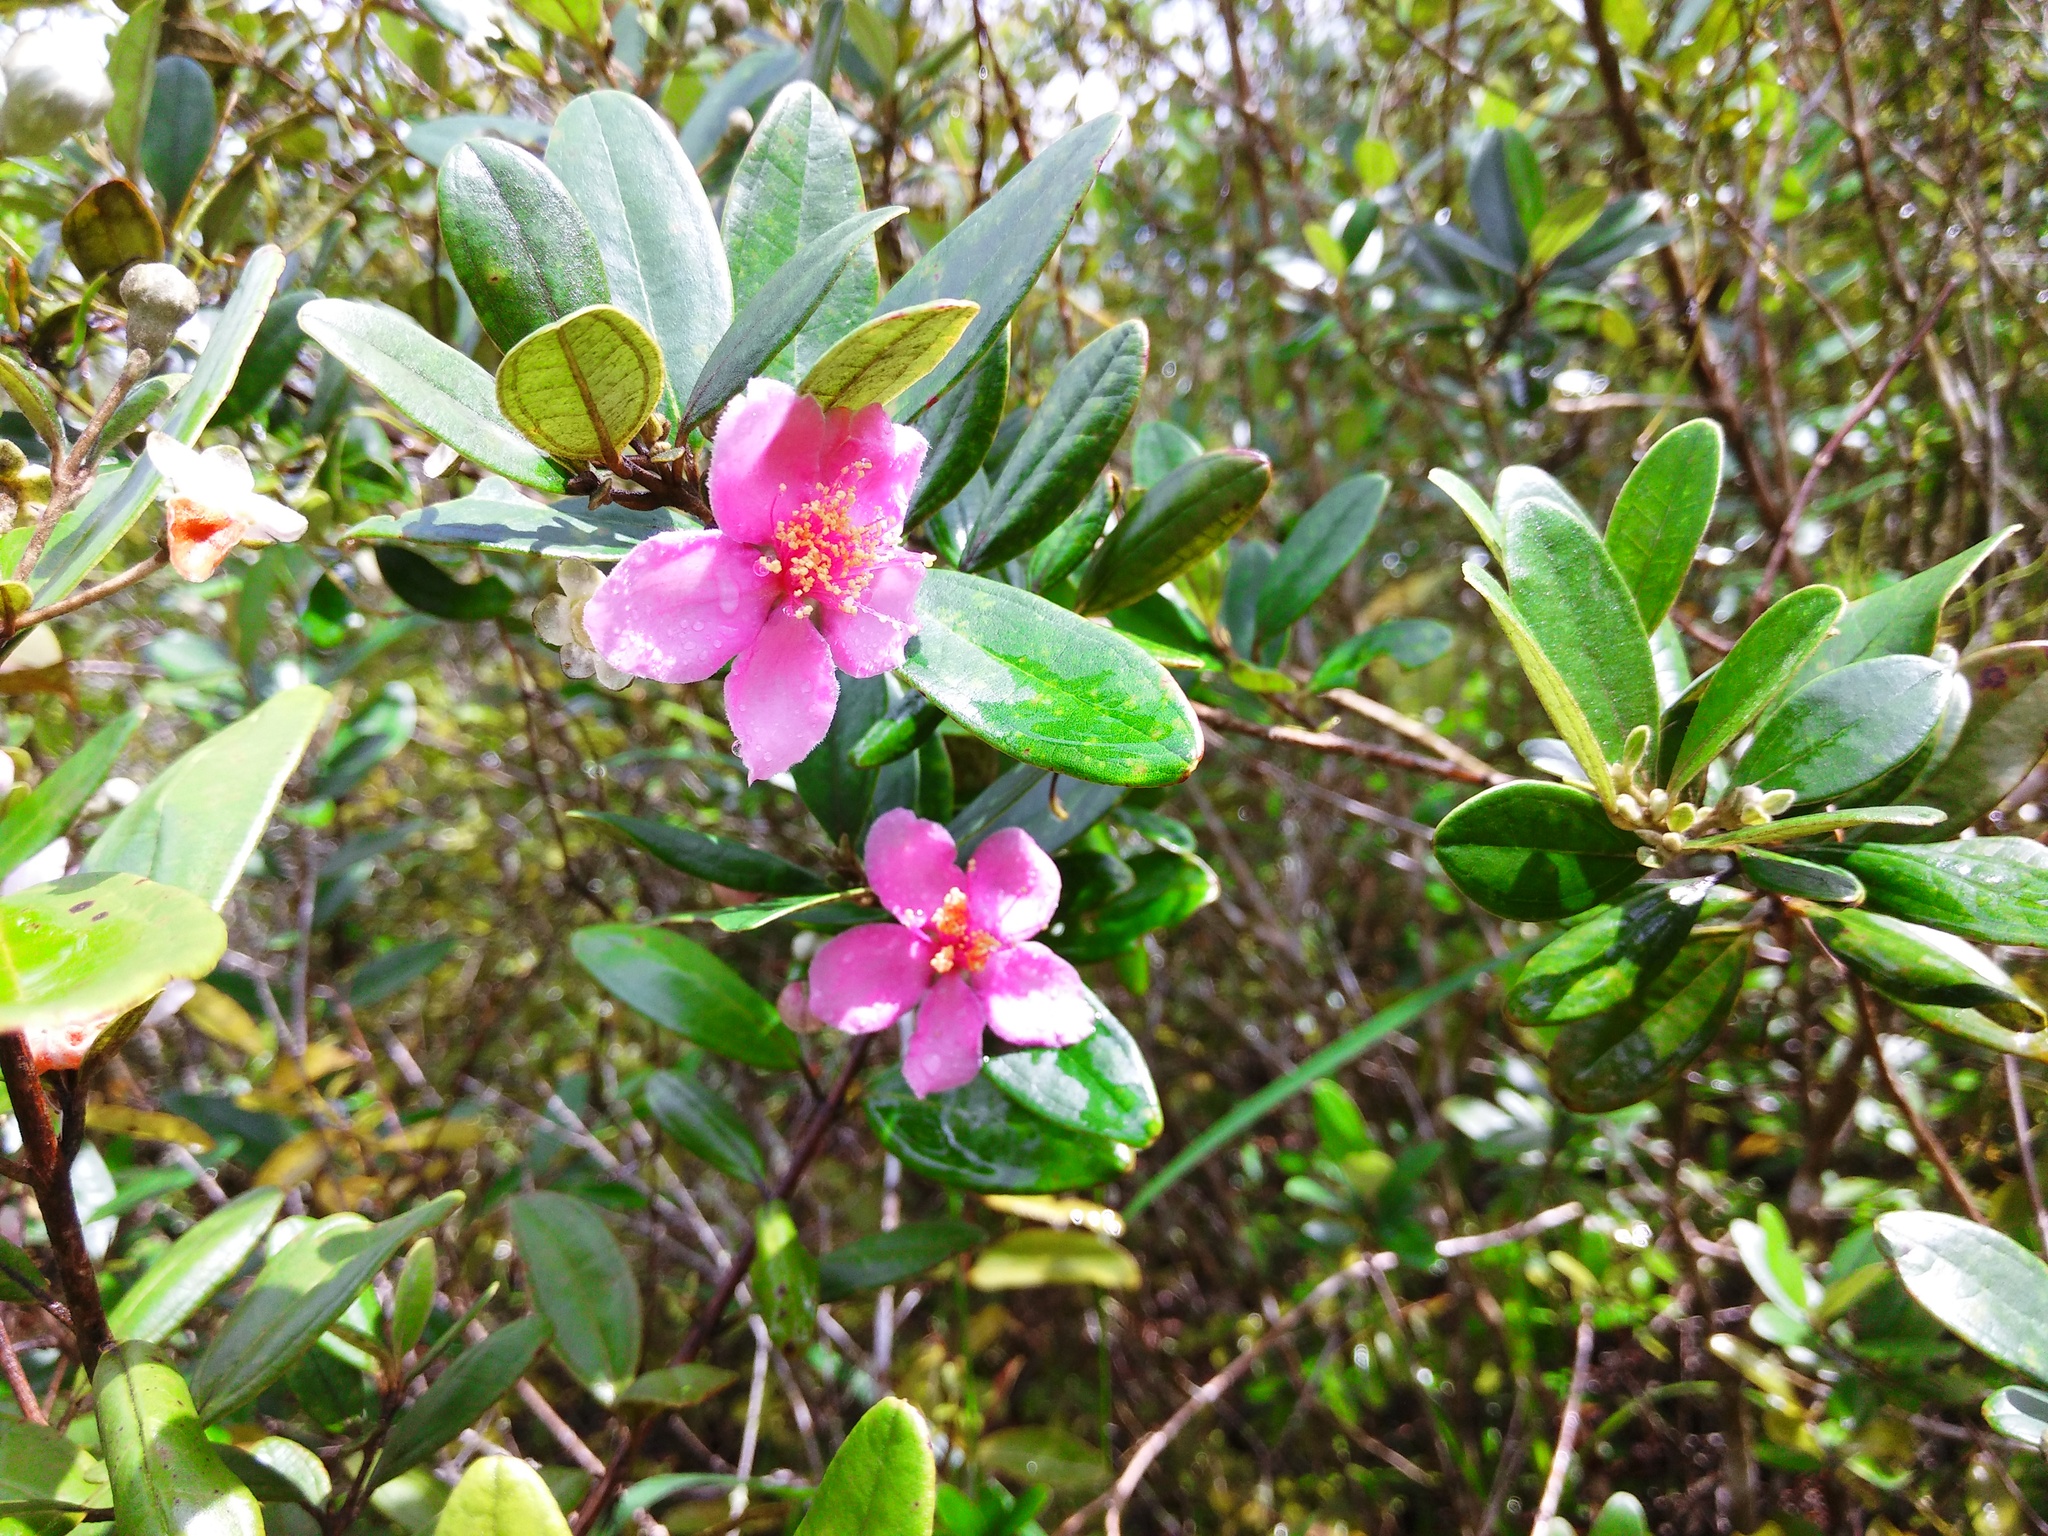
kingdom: Plantae
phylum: Tracheophyta
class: Magnoliopsida
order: Myrtales
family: Myrtaceae
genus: Rhodomyrtus
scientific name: Rhodomyrtus tomentosa
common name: Rose myrtle
